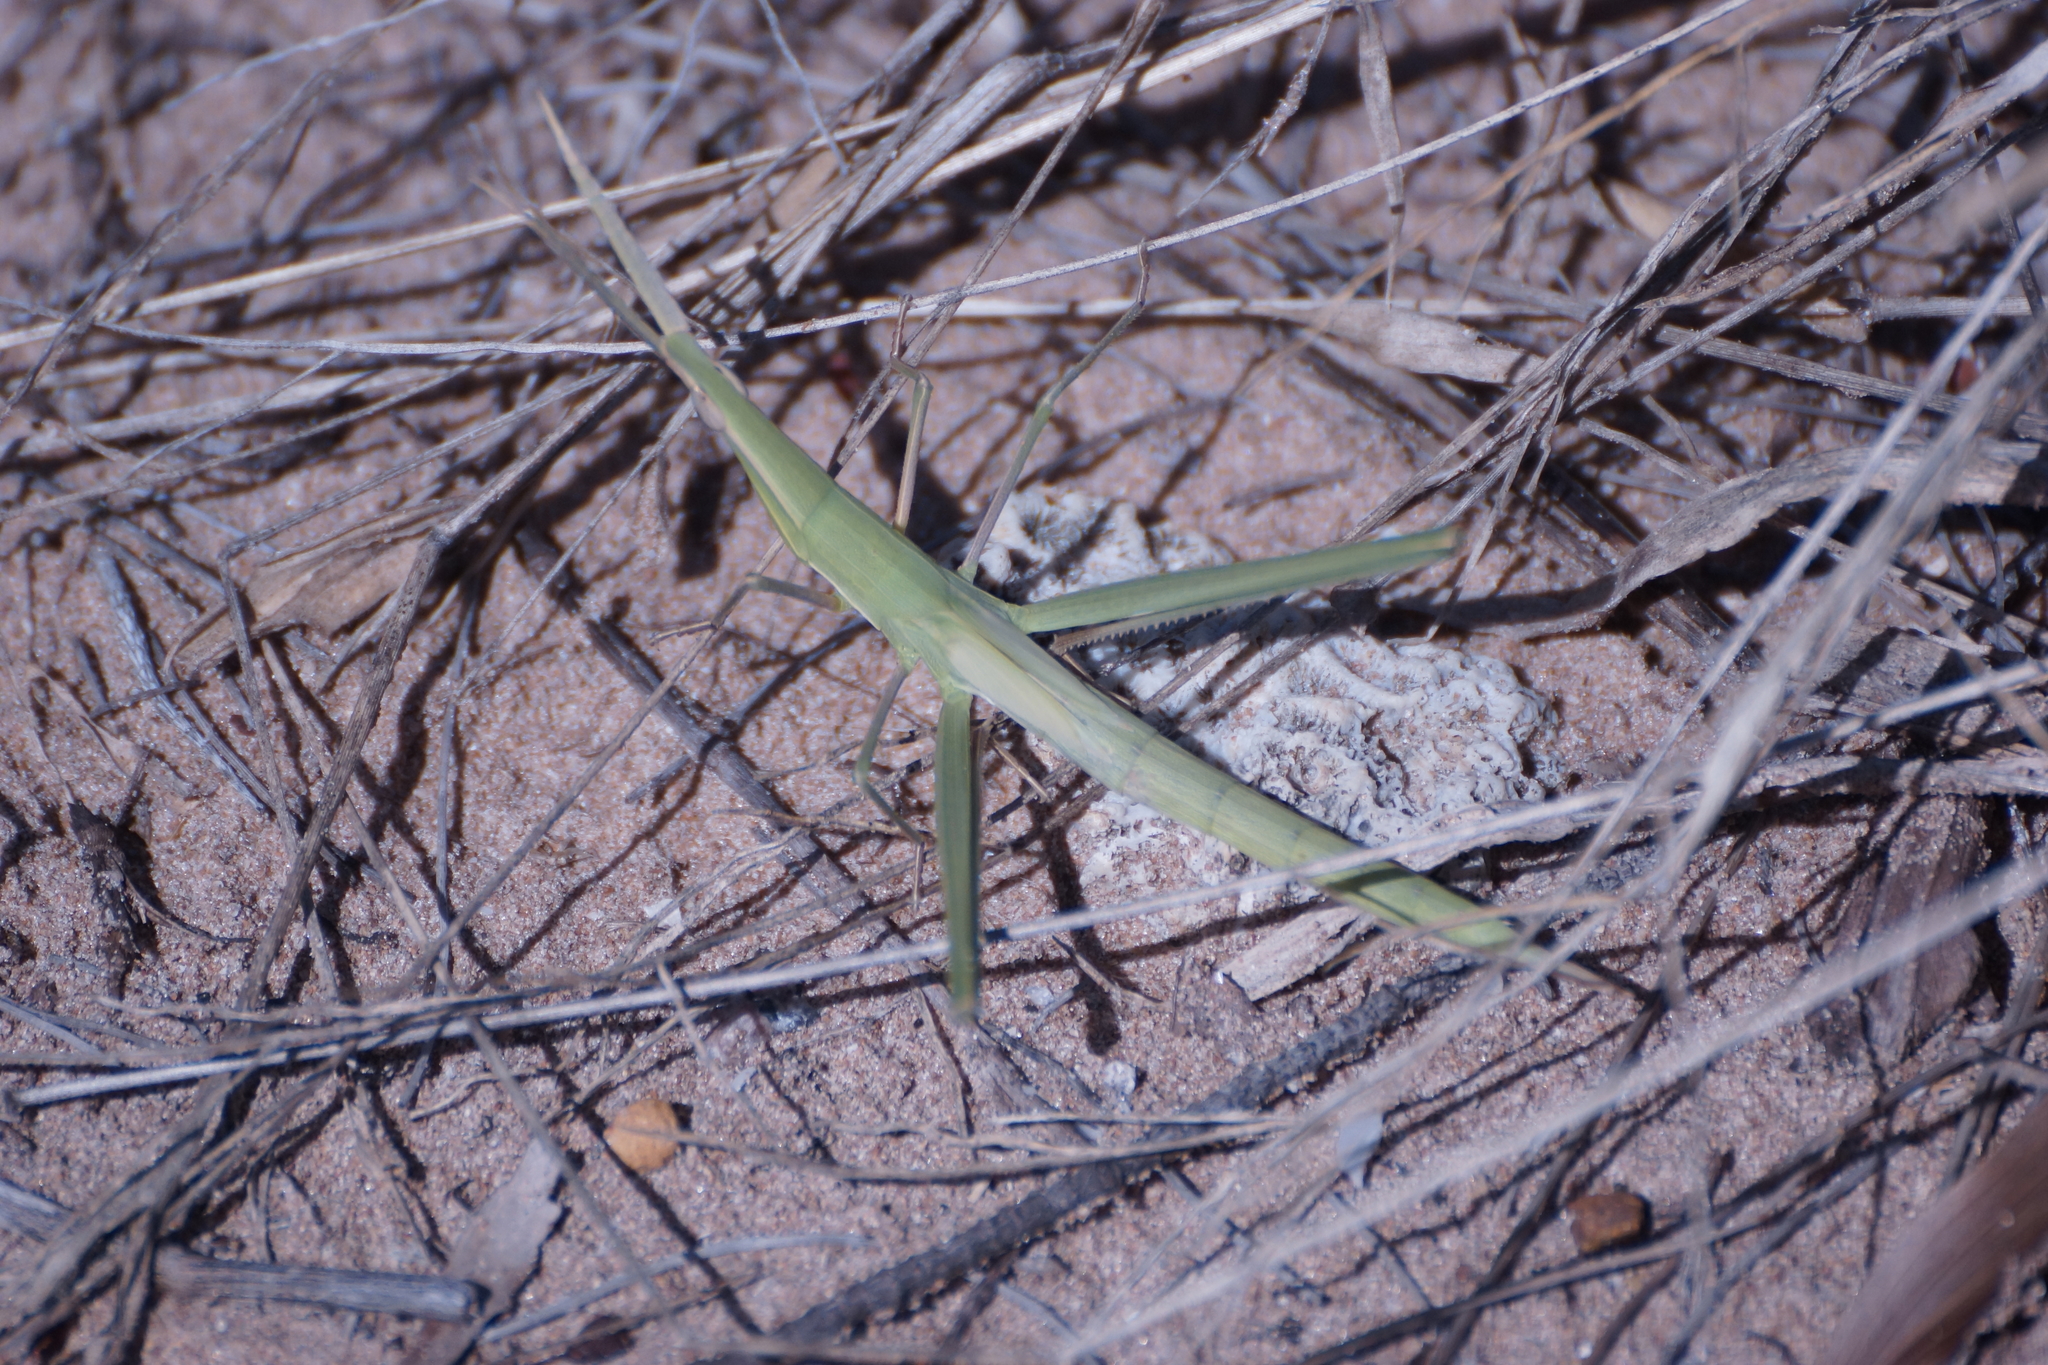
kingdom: Animalia
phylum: Arthropoda
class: Insecta
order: Orthoptera
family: Acrididae
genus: Acrida
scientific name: Acrida conica
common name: Giant green slantface
